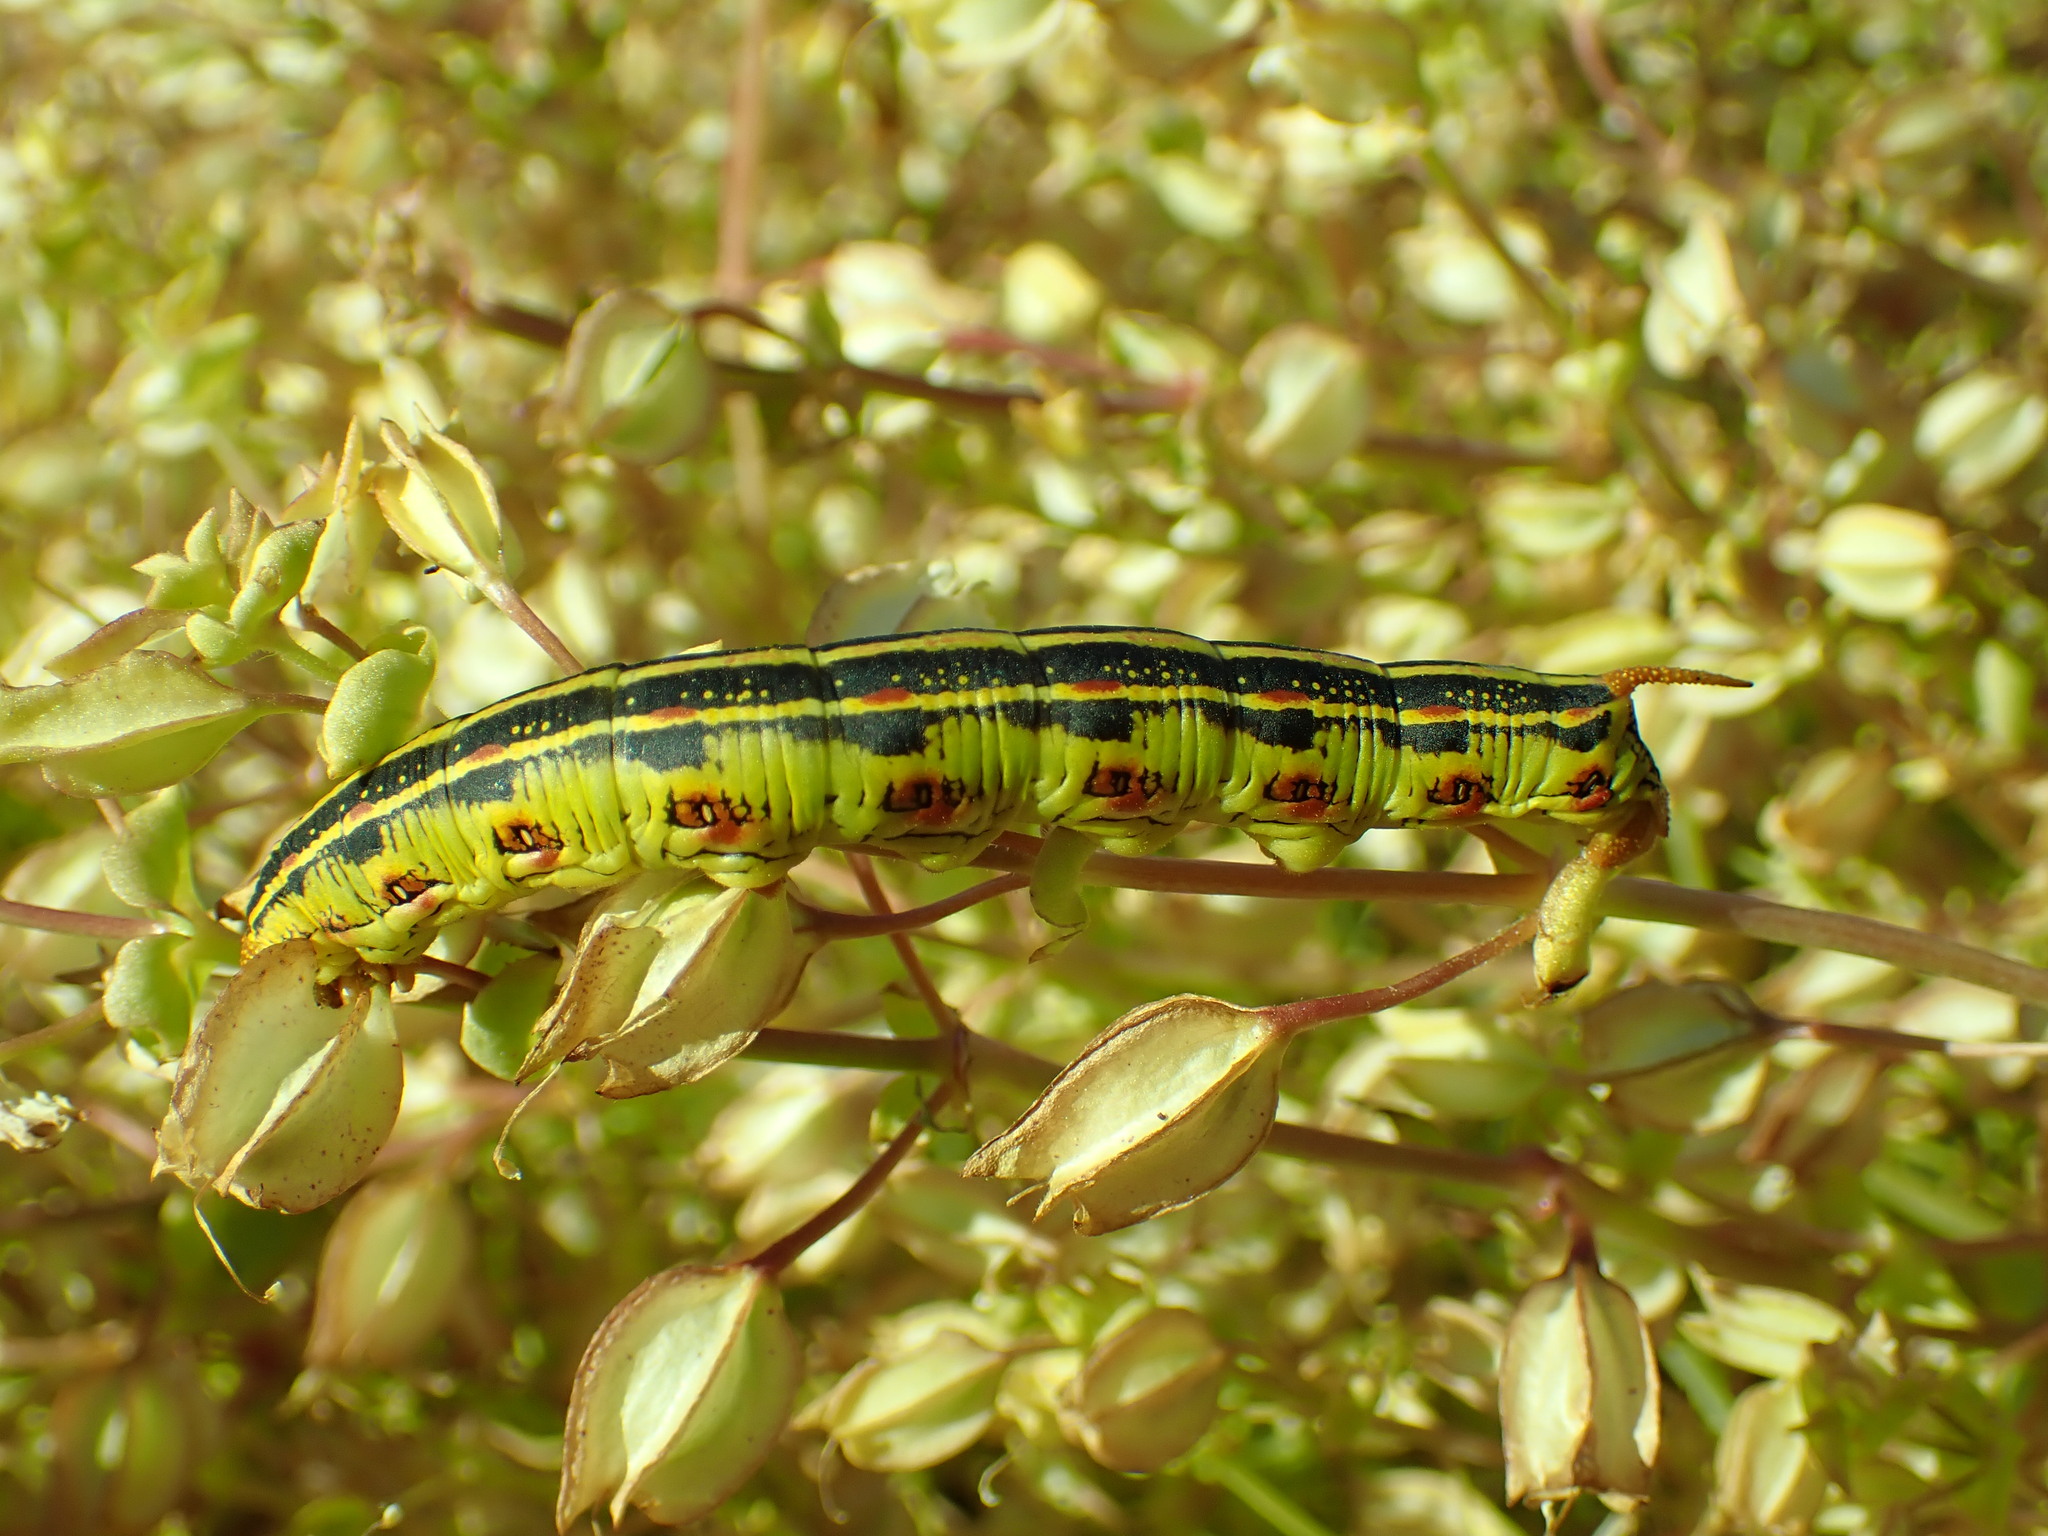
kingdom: Animalia
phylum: Arthropoda
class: Insecta
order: Lepidoptera
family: Sphingidae
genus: Hyles
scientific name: Hyles lineata
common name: White-lined sphinx
